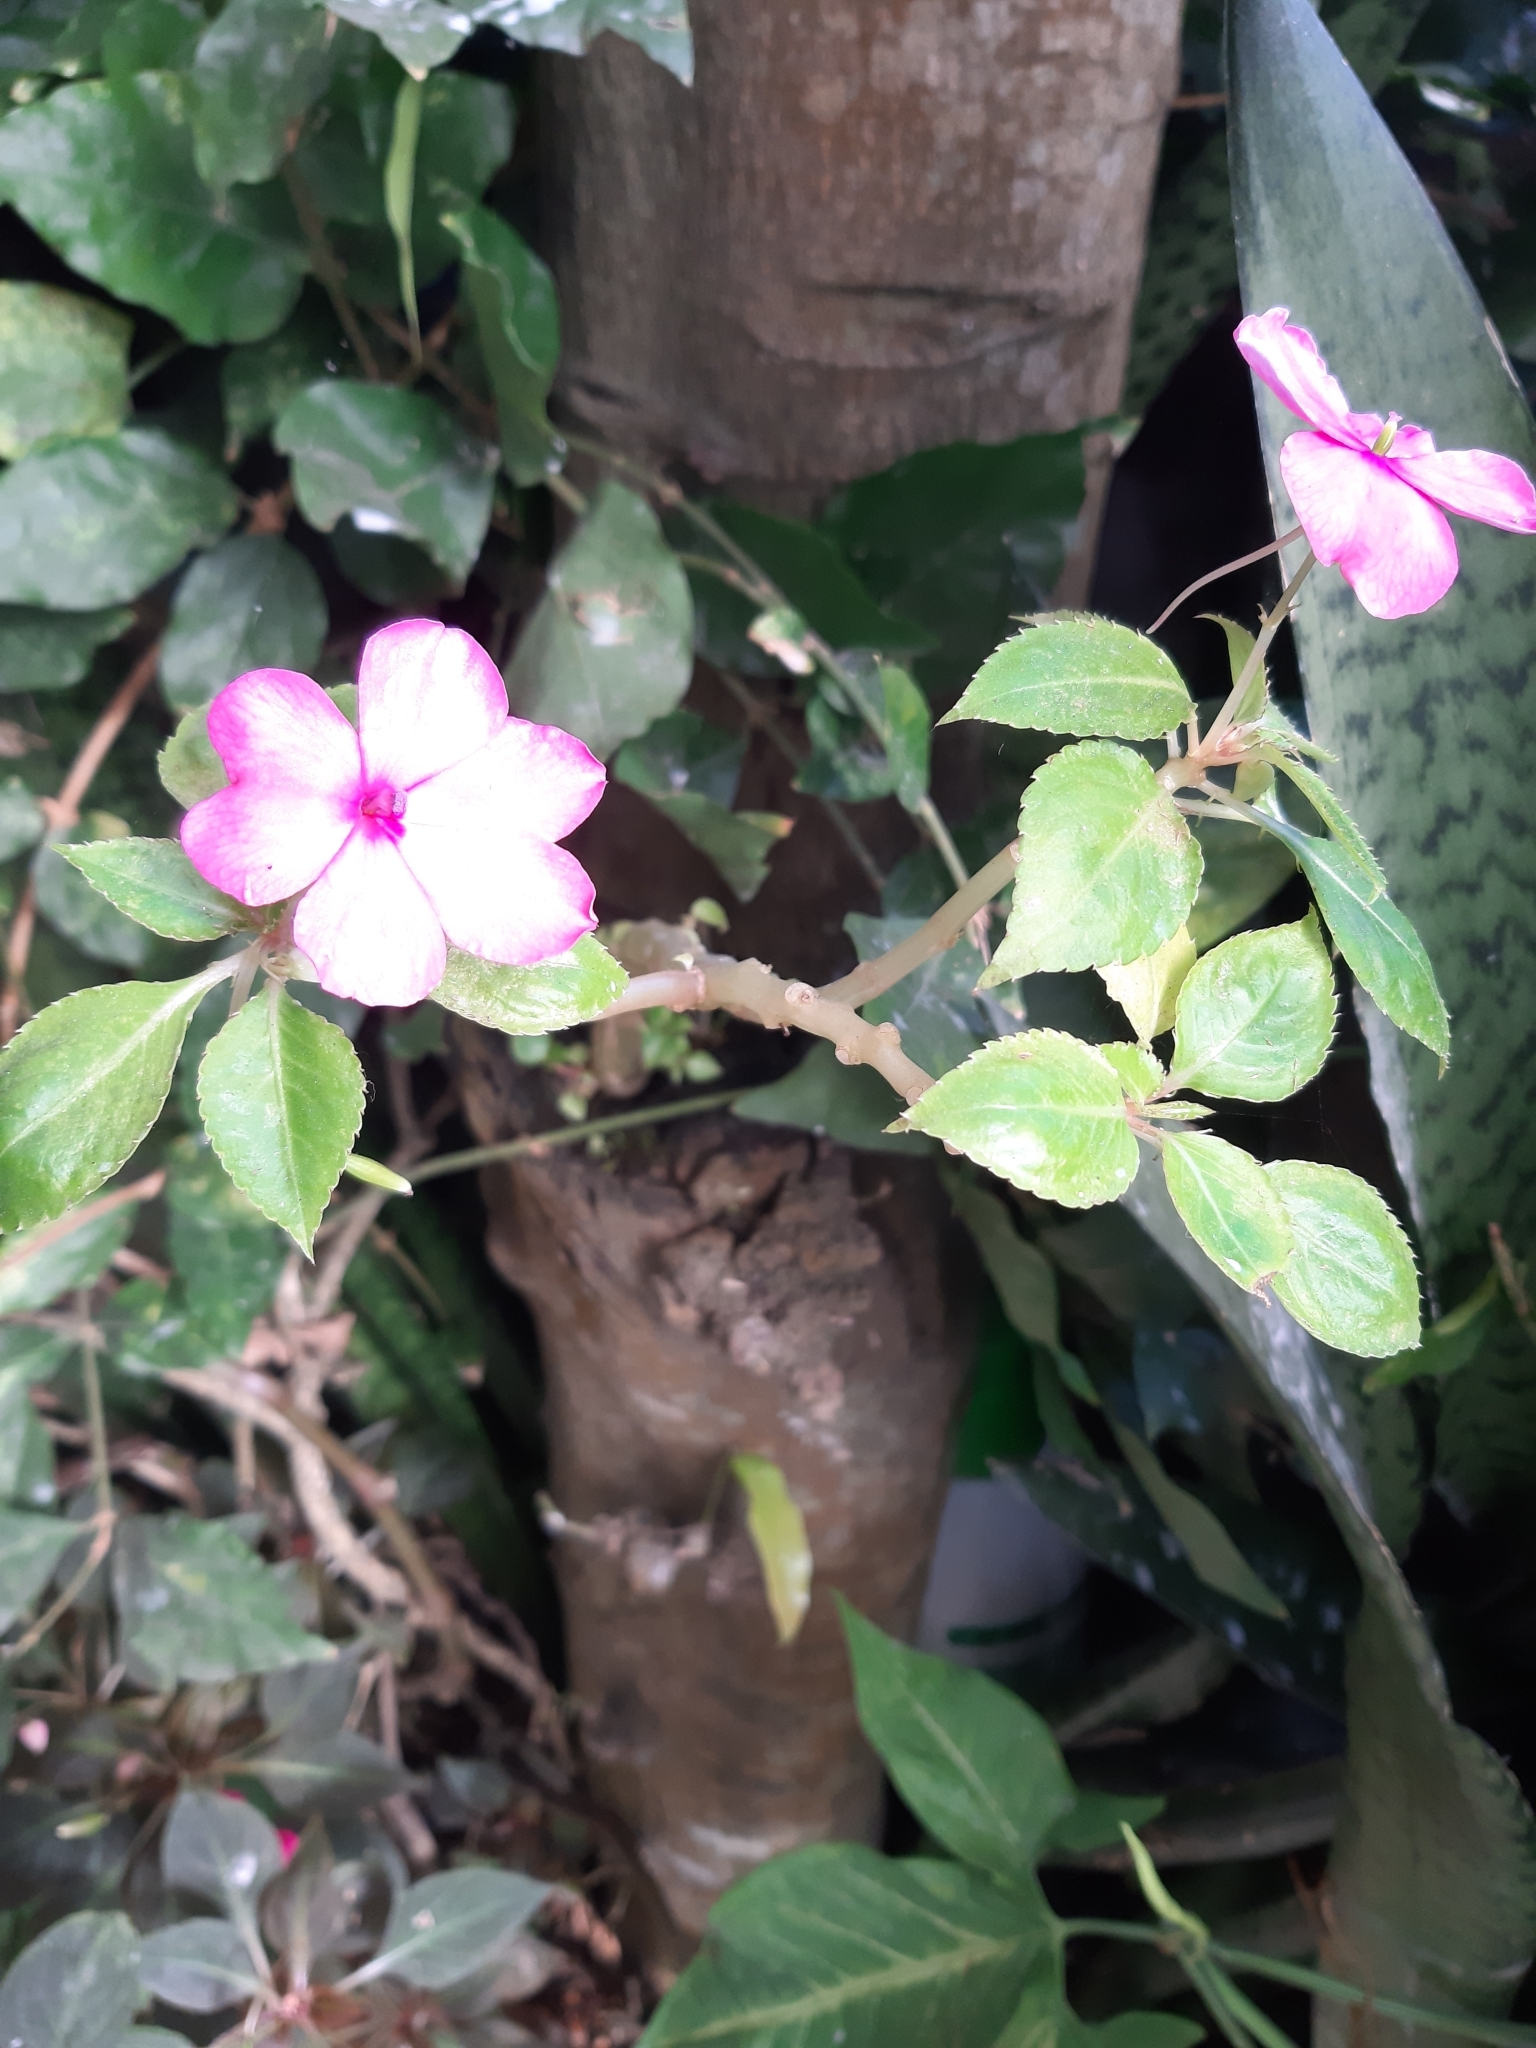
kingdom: Plantae
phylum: Tracheophyta
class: Magnoliopsida
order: Ericales
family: Balsaminaceae
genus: Impatiens
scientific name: Impatiens walleriana
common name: Buzzy lizzy
